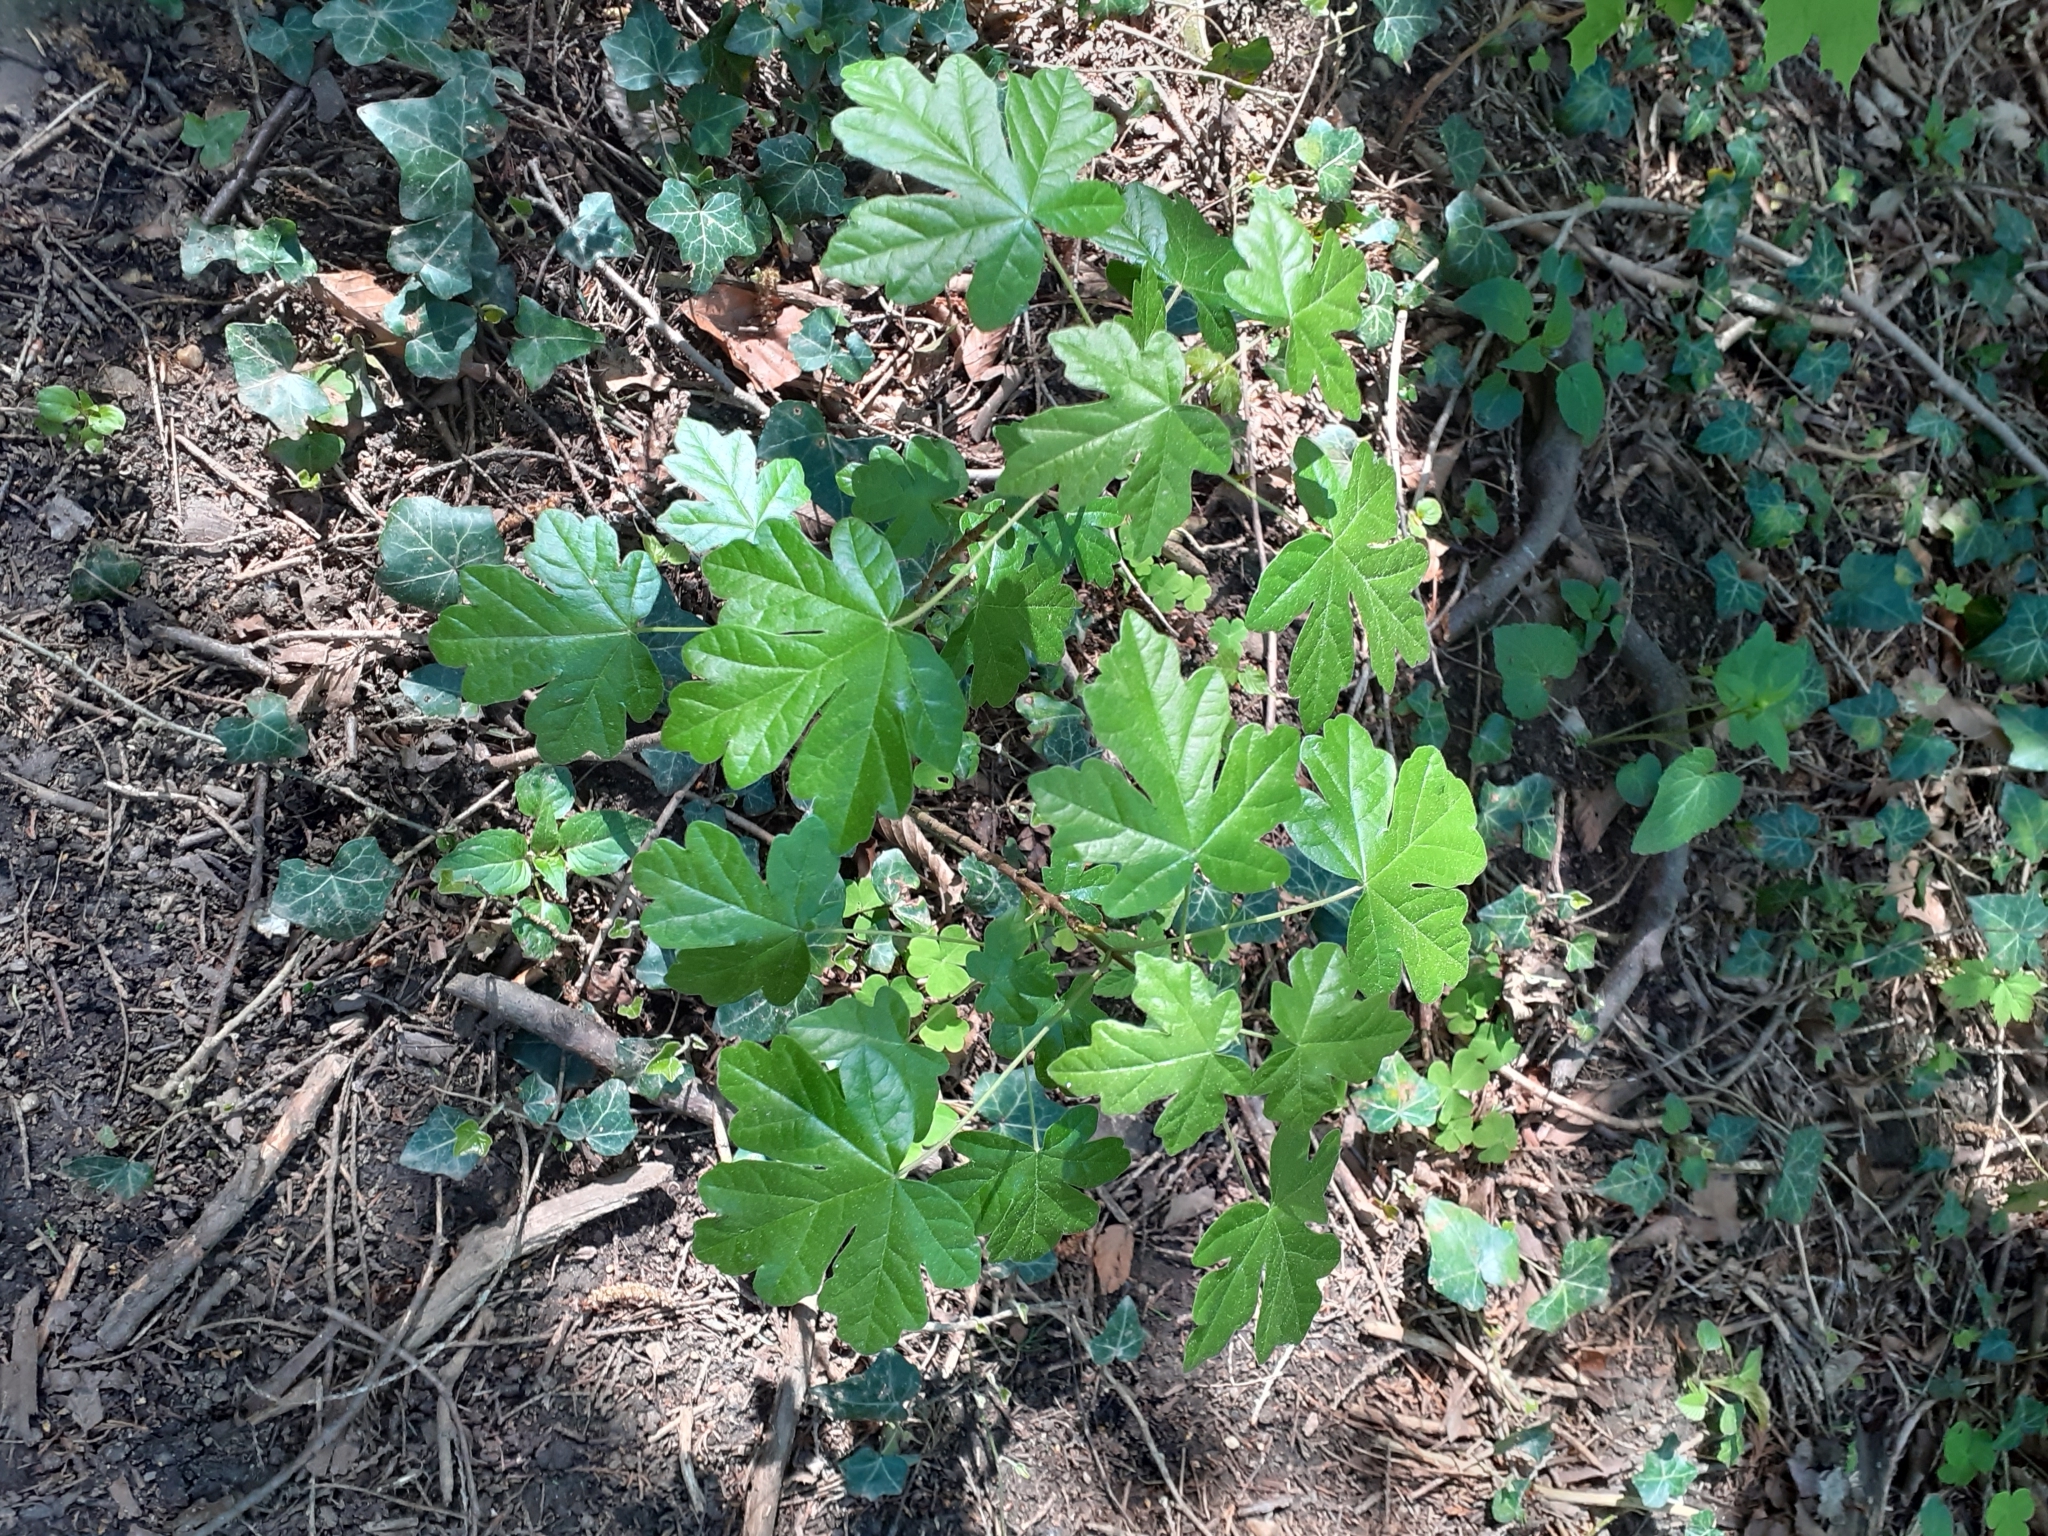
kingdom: Plantae
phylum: Tracheophyta
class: Magnoliopsida
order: Sapindales
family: Sapindaceae
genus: Acer
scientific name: Acer campestre
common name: Field maple
